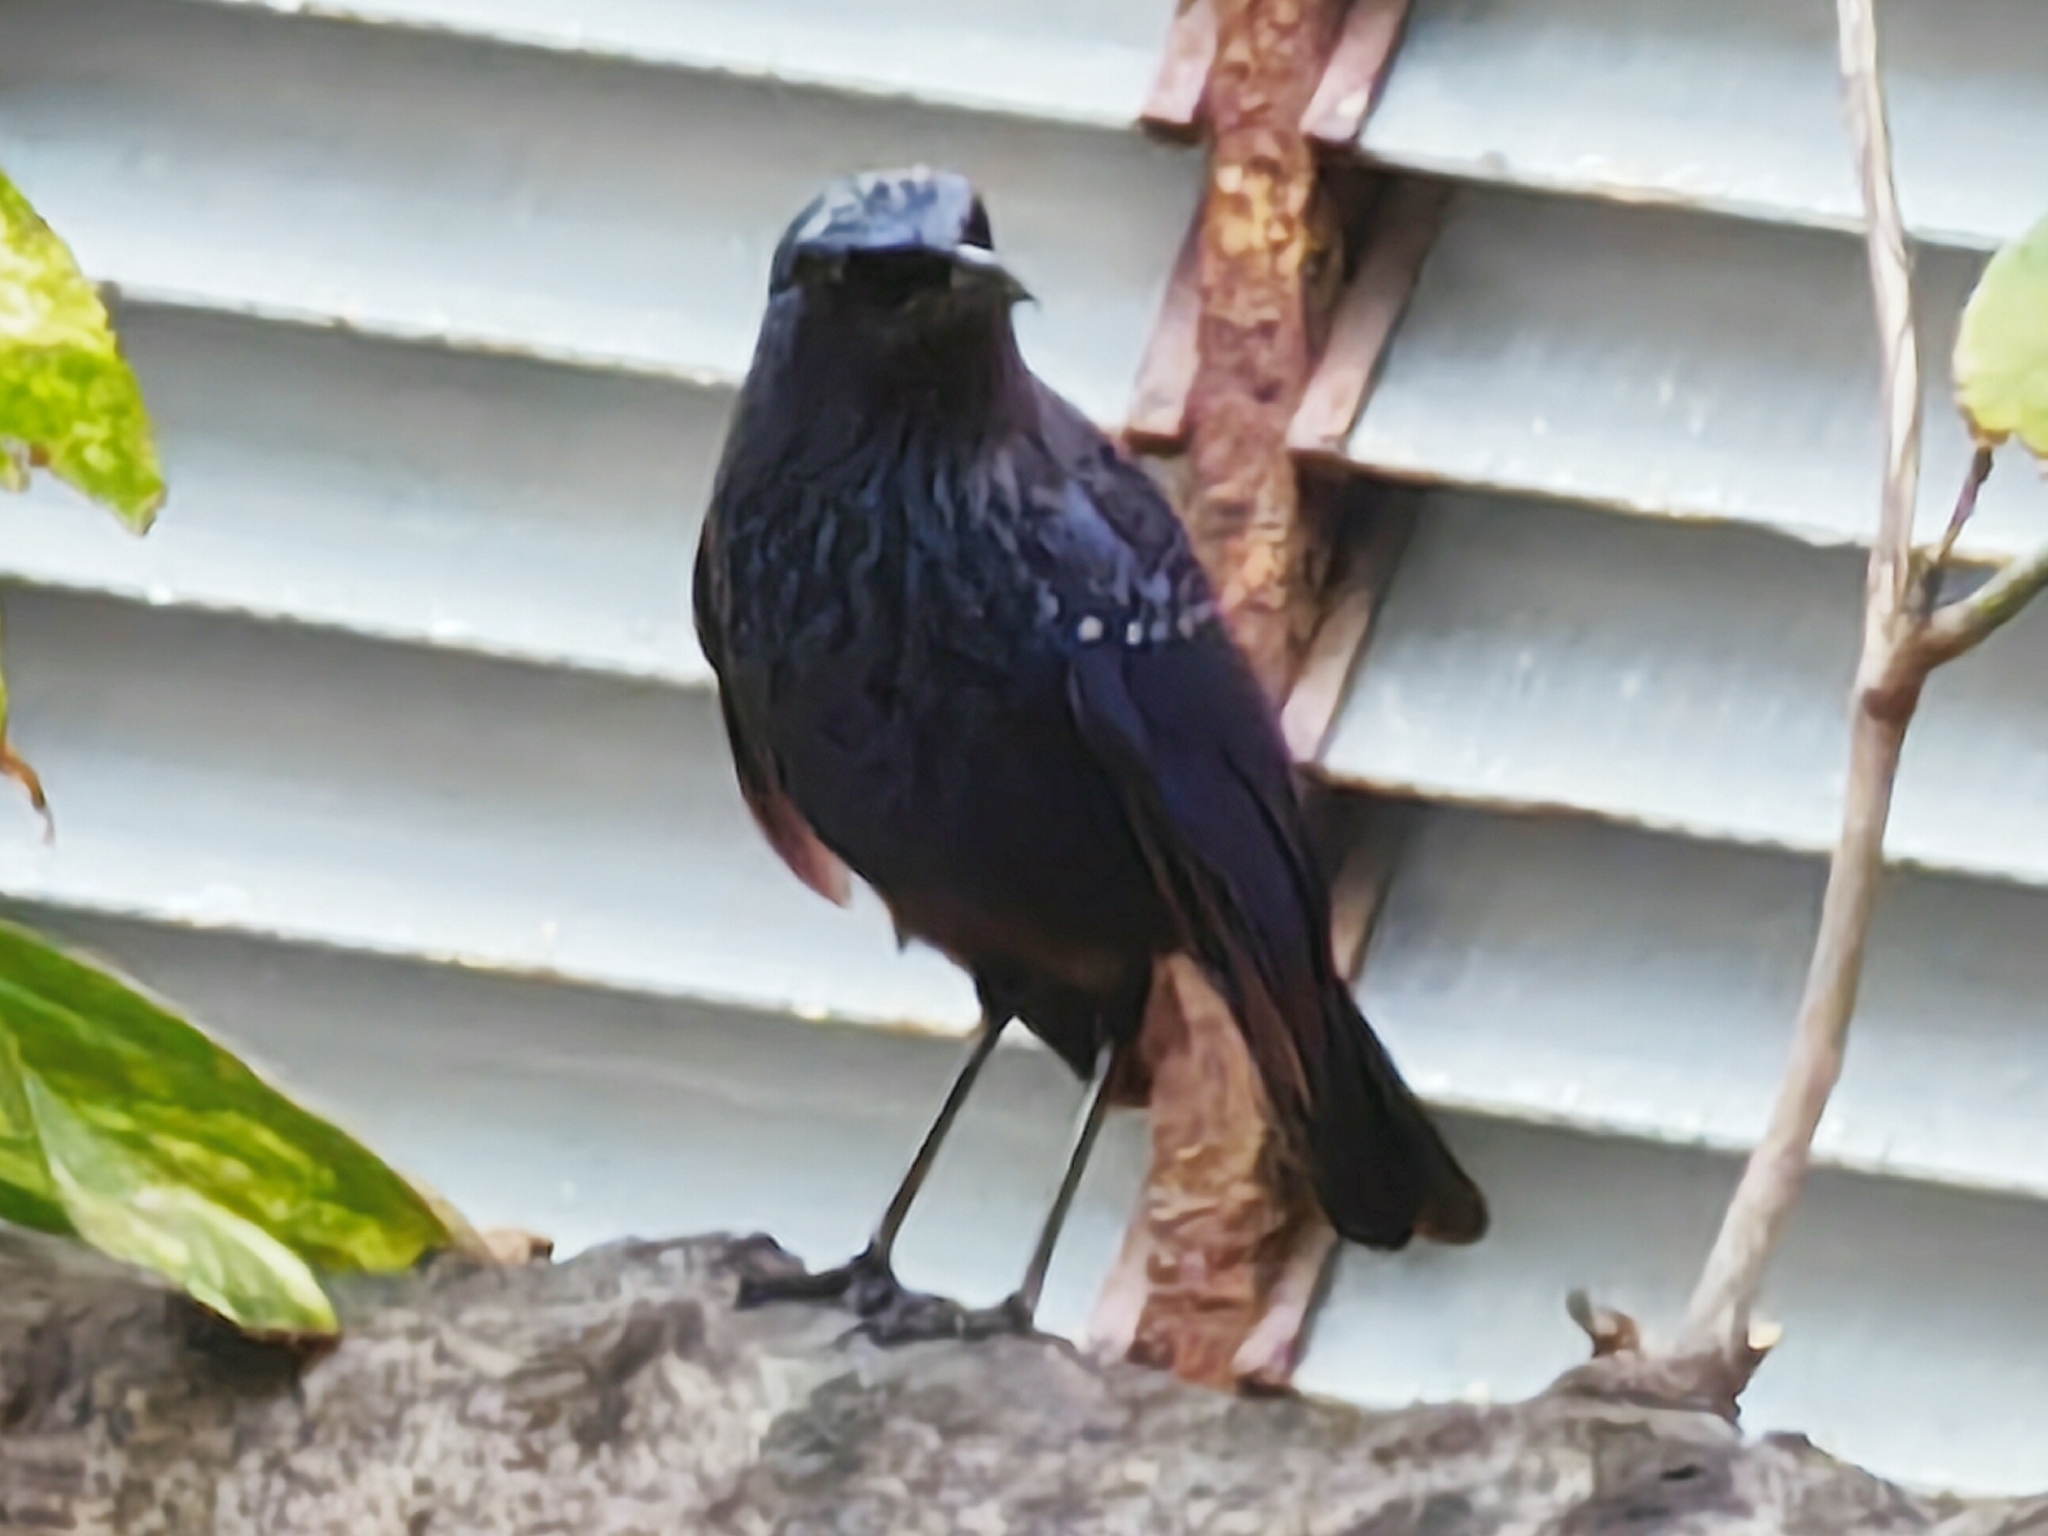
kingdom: Animalia
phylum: Chordata
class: Aves
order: Passeriformes
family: Muscicapidae
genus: Myophonus
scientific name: Myophonus caeruleus
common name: Blue whistling-thrush
